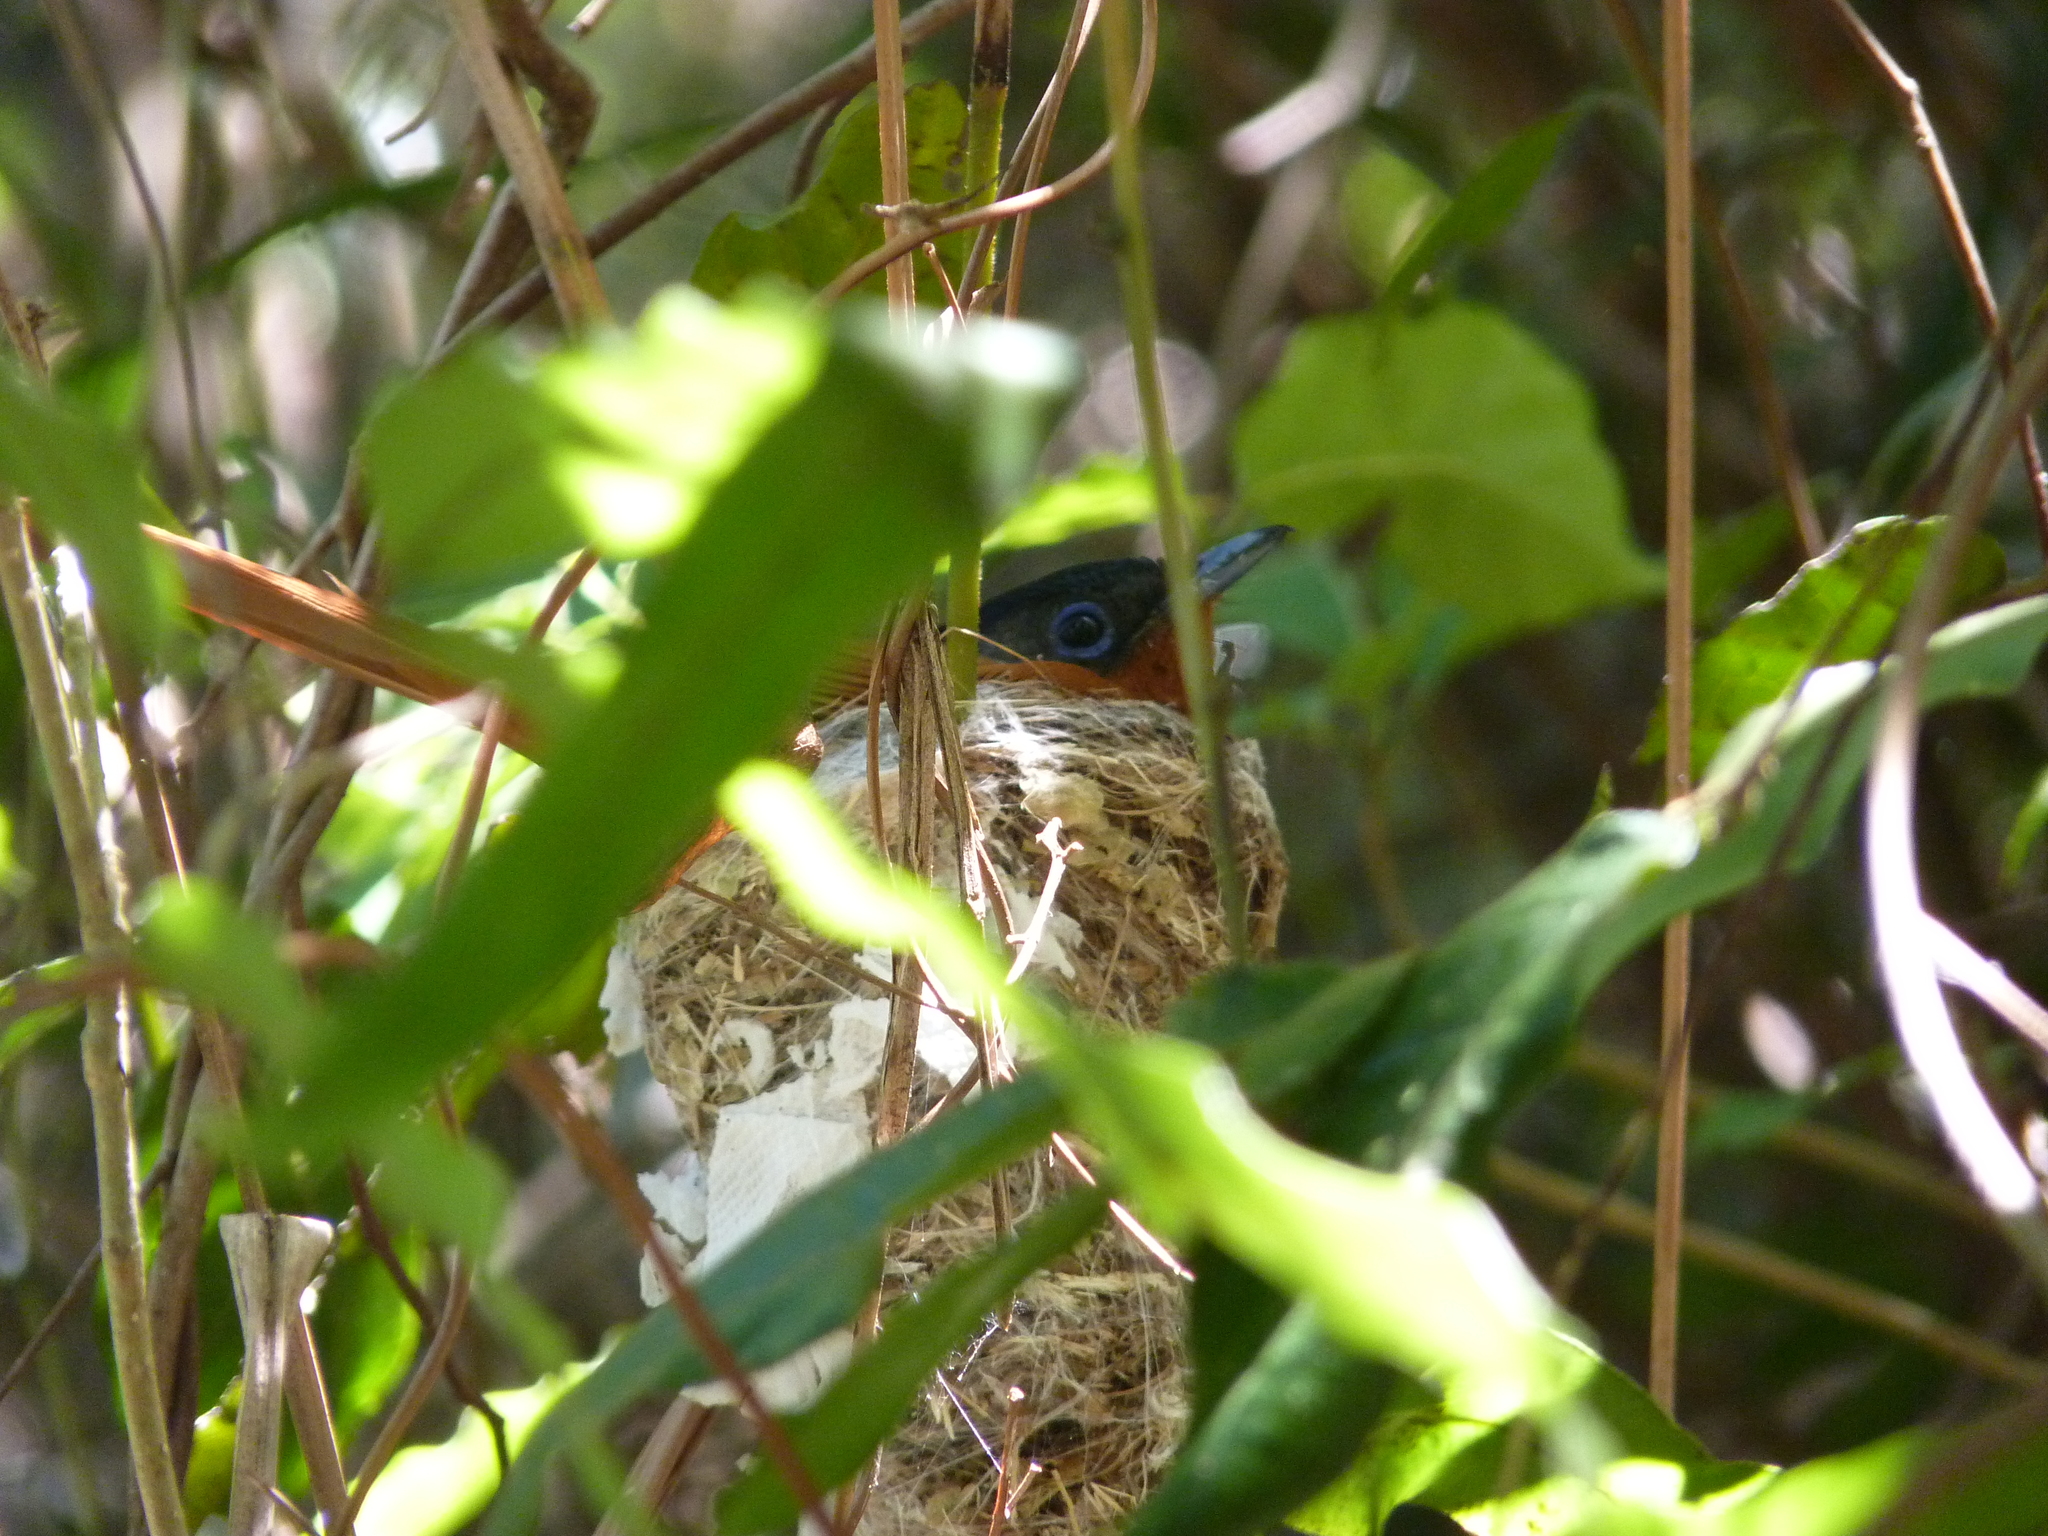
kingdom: Animalia
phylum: Chordata
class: Aves
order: Passeriformes
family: Monarchidae
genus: Terpsiphone
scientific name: Terpsiphone mutata
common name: Malagasy paradise flycatcher
